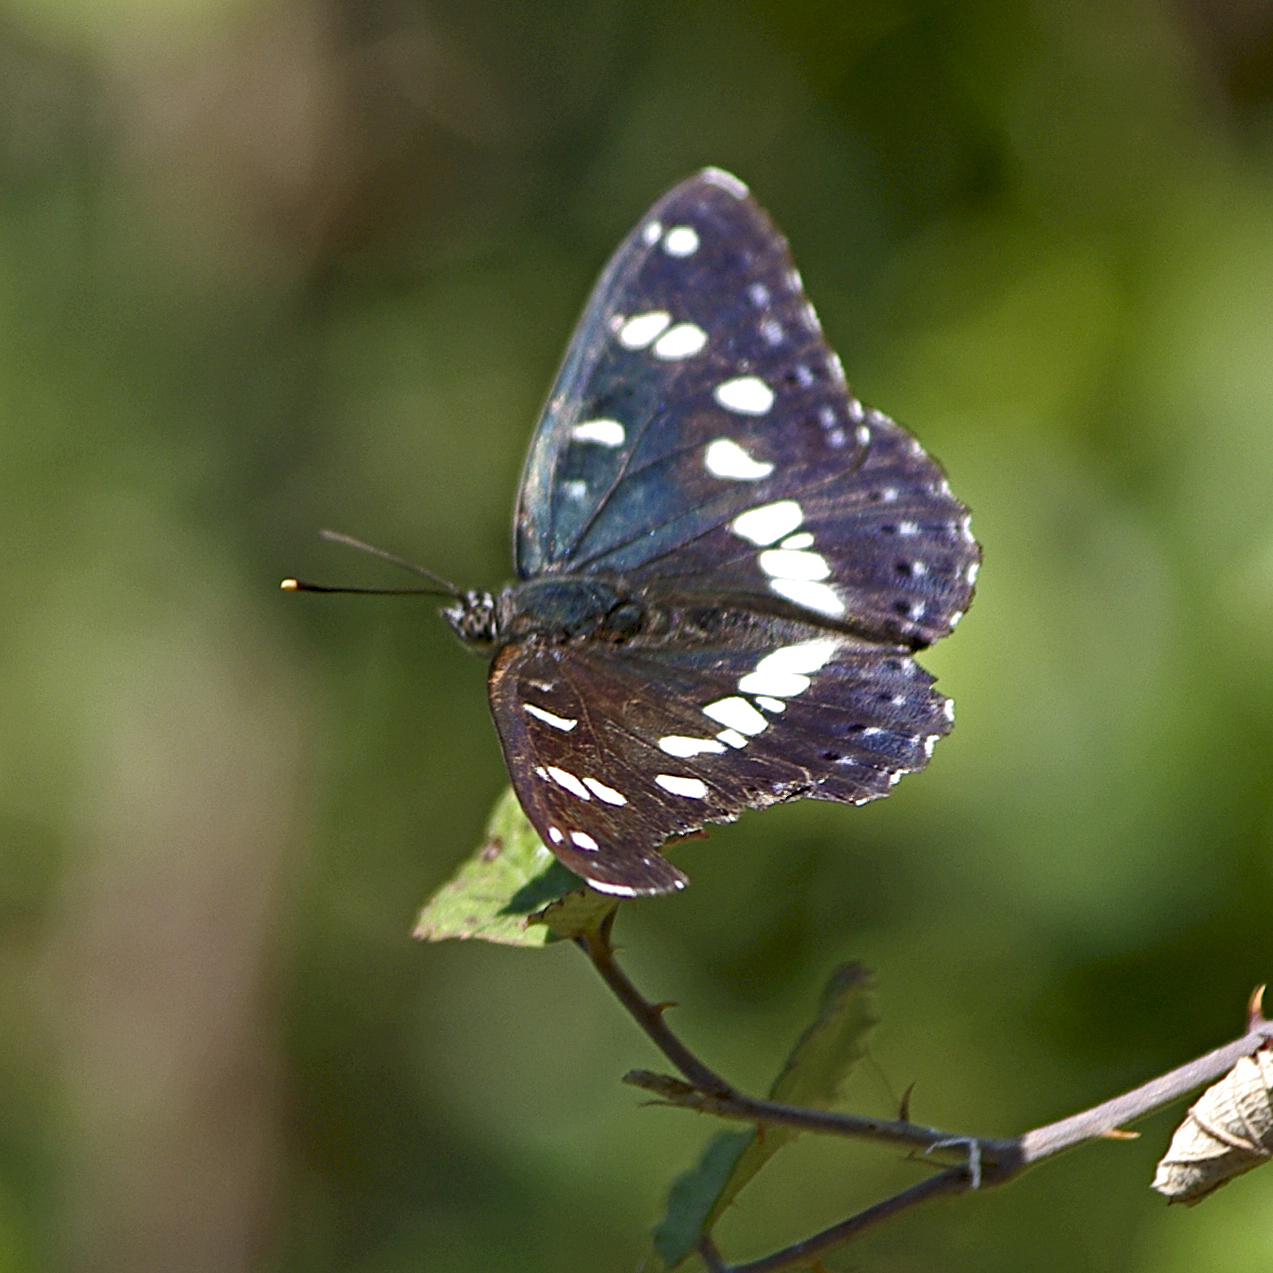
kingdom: Animalia
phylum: Arthropoda
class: Insecta
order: Lepidoptera
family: Nymphalidae
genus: Limenitis
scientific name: Limenitis reducta
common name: Southern white admiral
